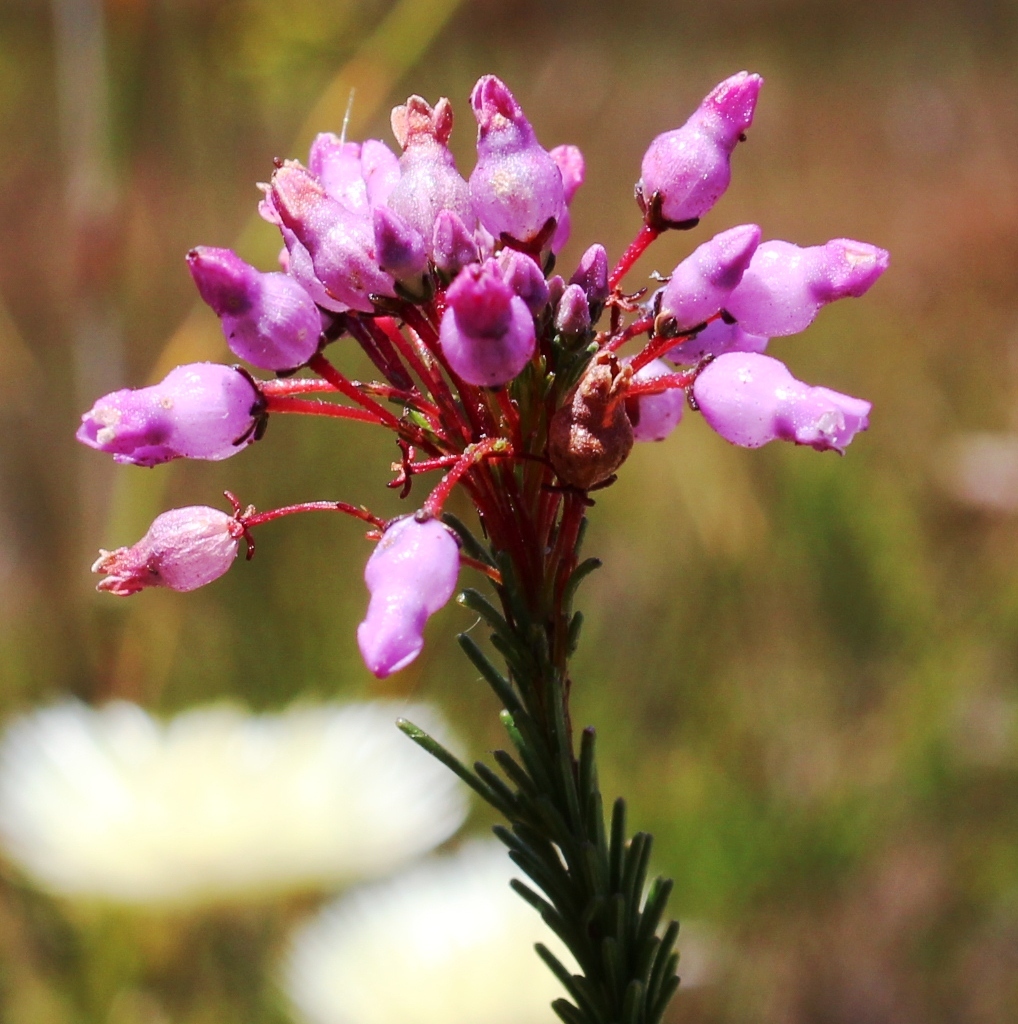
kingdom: Plantae
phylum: Tracheophyta
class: Magnoliopsida
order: Ericales
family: Ericaceae
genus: Erica
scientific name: Erica obliqua
